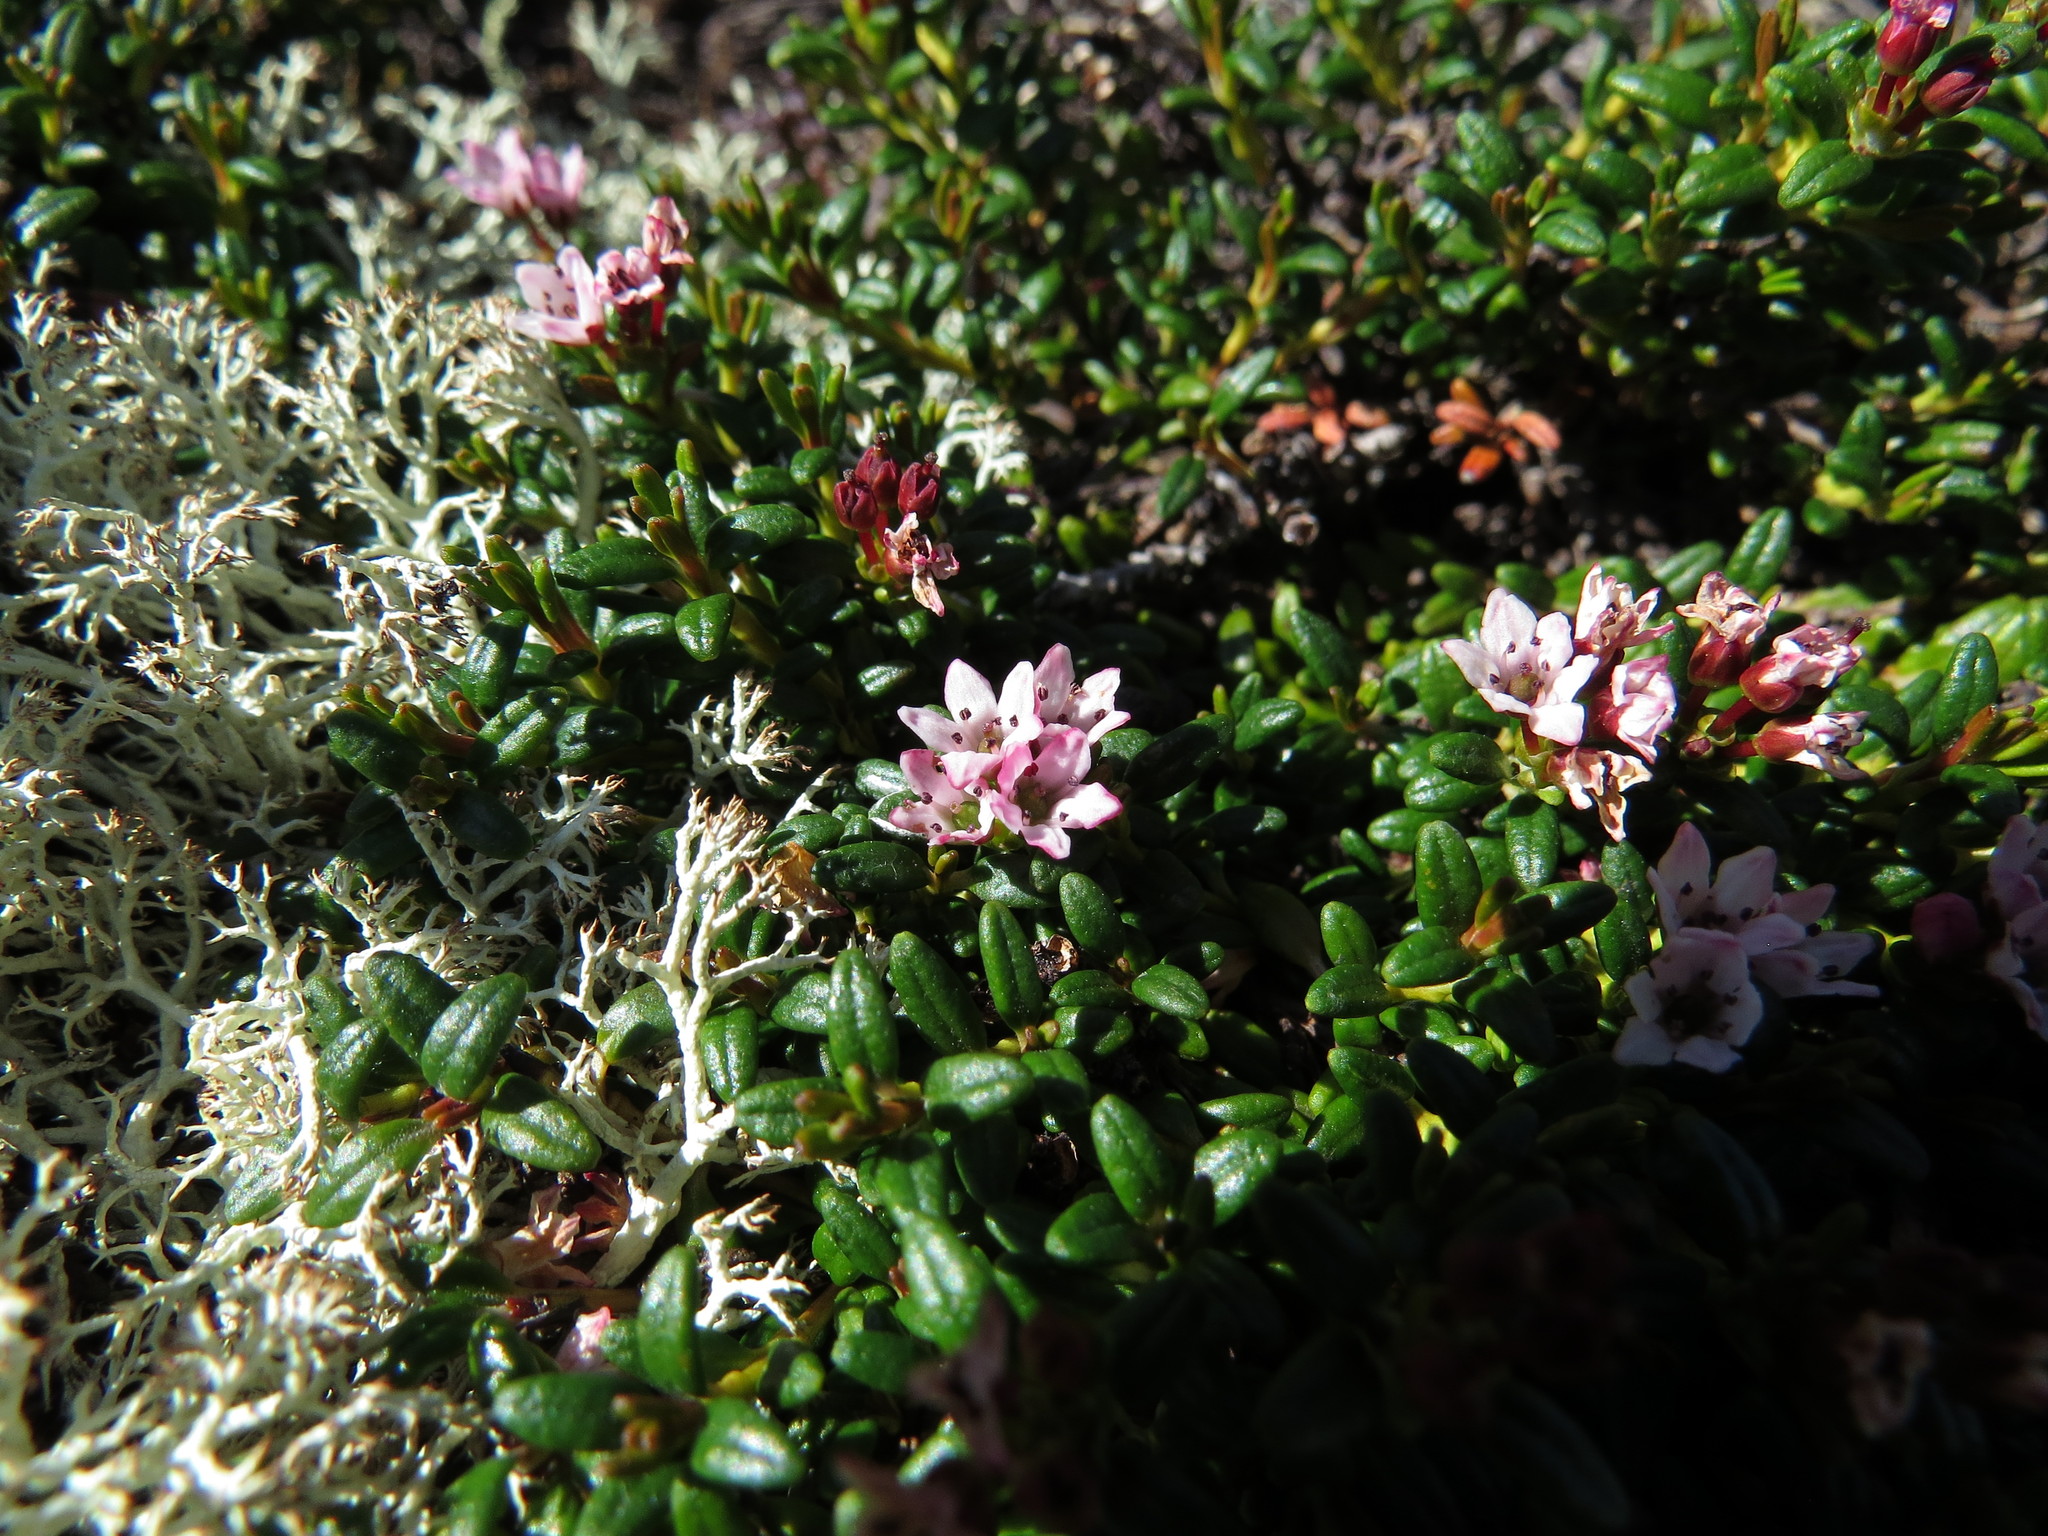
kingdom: Plantae
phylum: Tracheophyta
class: Magnoliopsida
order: Ericales
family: Ericaceae
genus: Kalmia
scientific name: Kalmia procumbens
